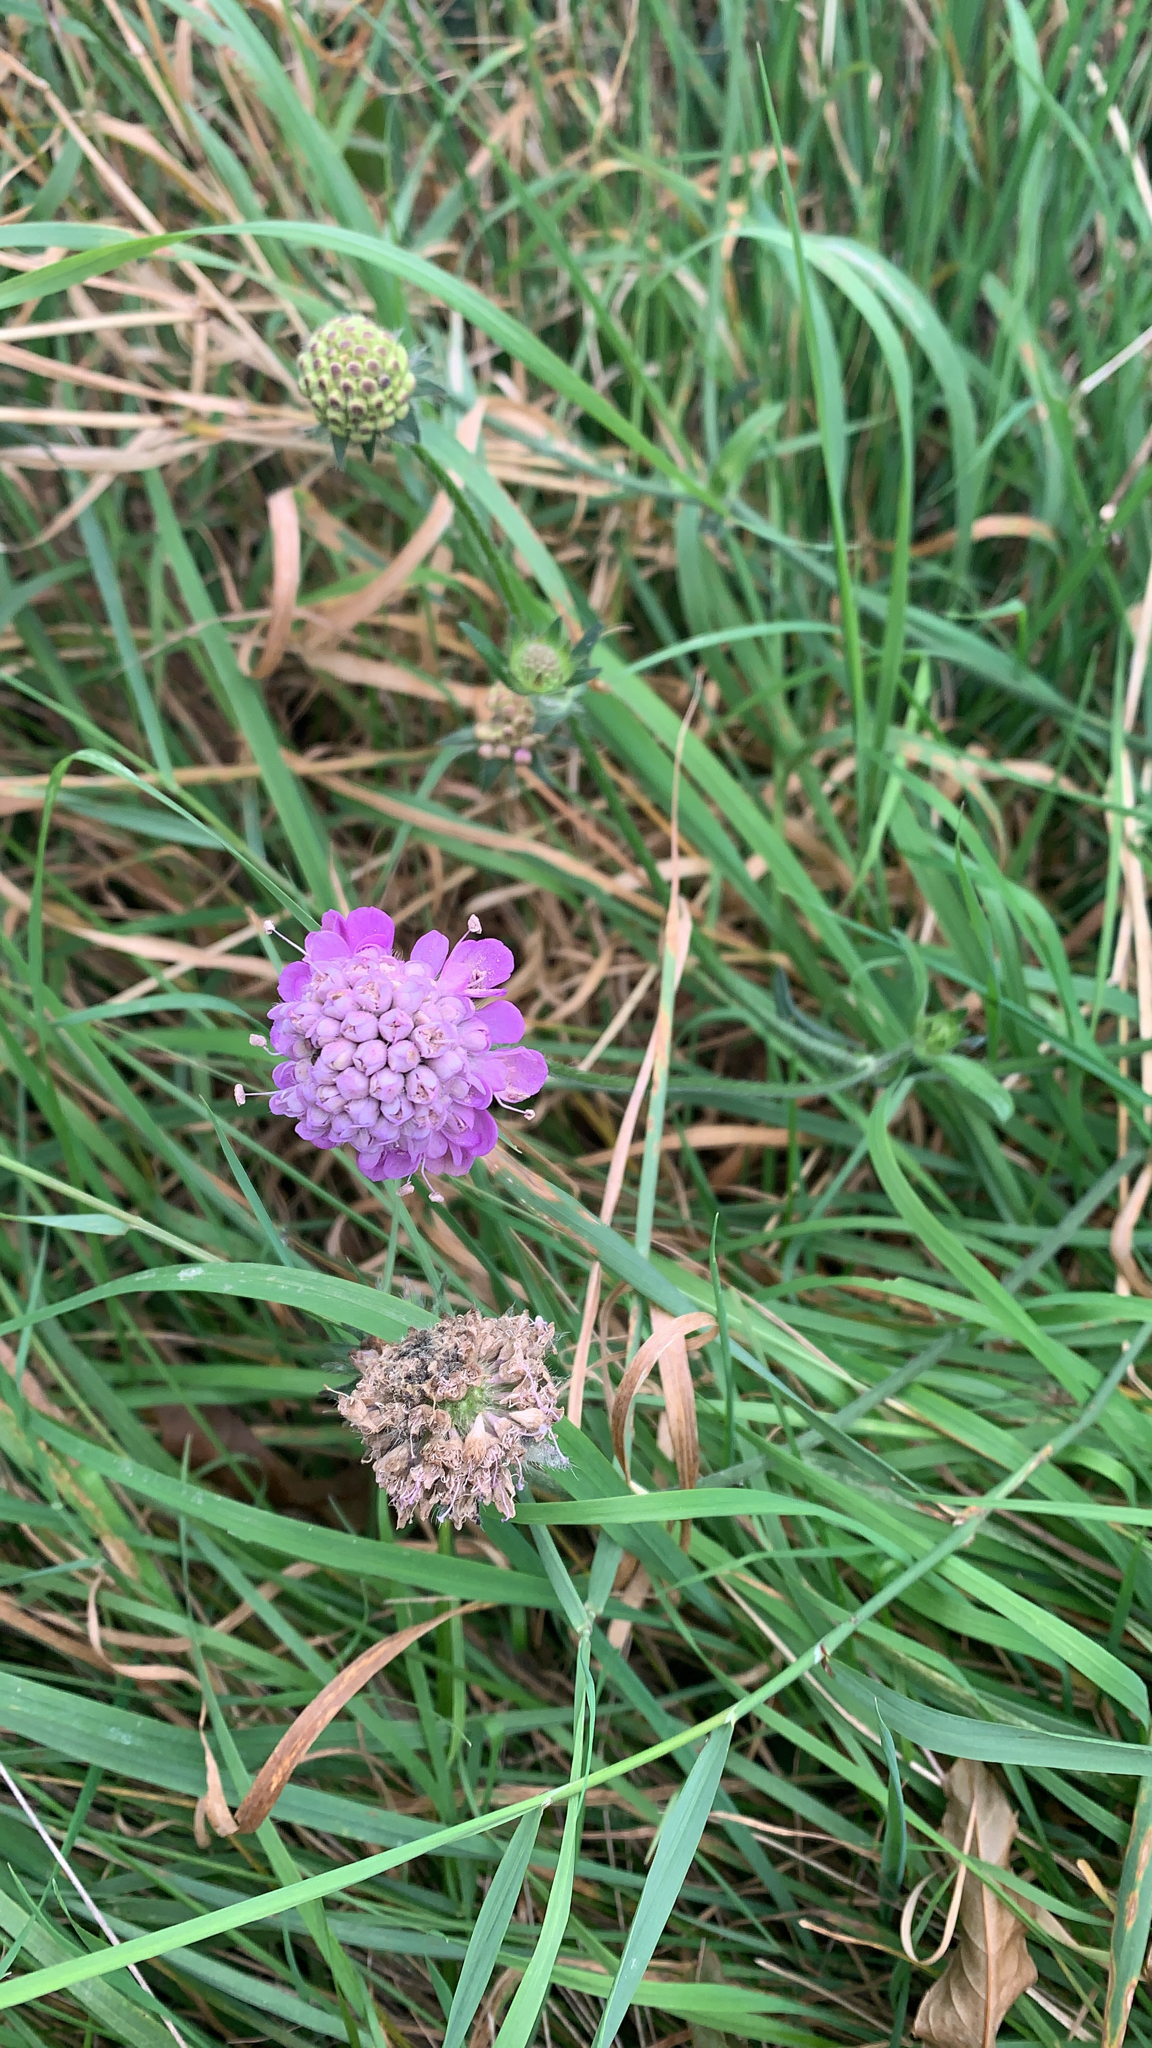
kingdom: Plantae
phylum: Tracheophyta
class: Magnoliopsida
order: Dipsacales
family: Caprifoliaceae
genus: Knautia
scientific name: Knautia arvensis
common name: Field scabiosa
